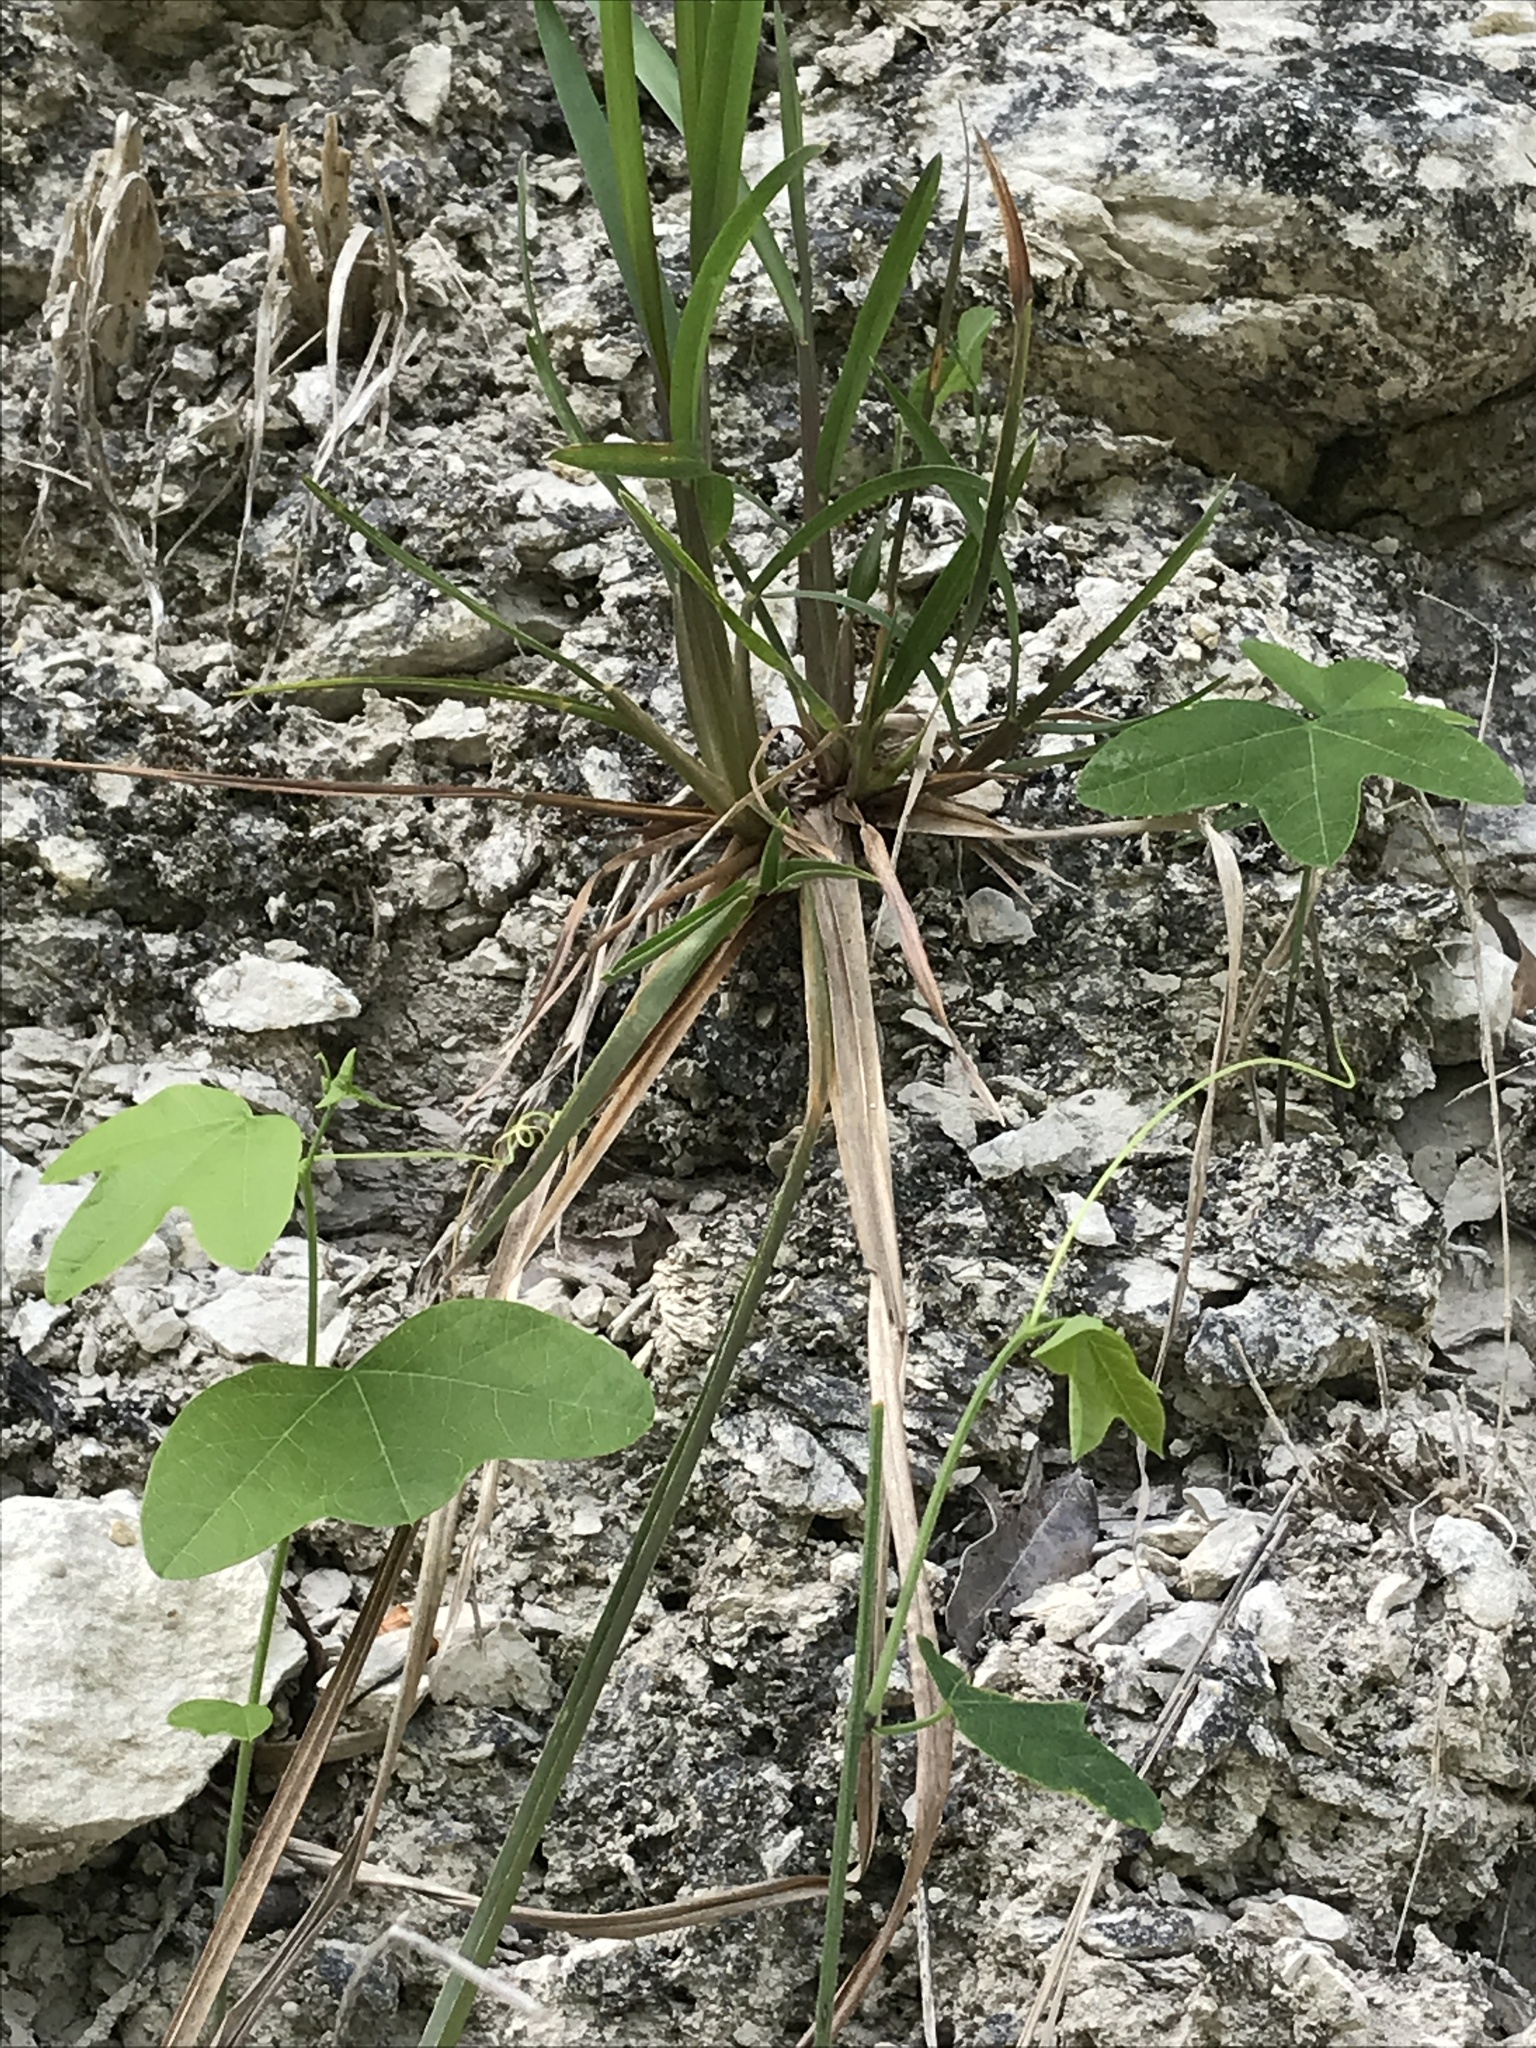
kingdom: Plantae
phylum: Tracheophyta
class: Magnoliopsida
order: Malpighiales
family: Passifloraceae
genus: Passiflora
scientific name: Passiflora lutea
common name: Yellow passionflower
